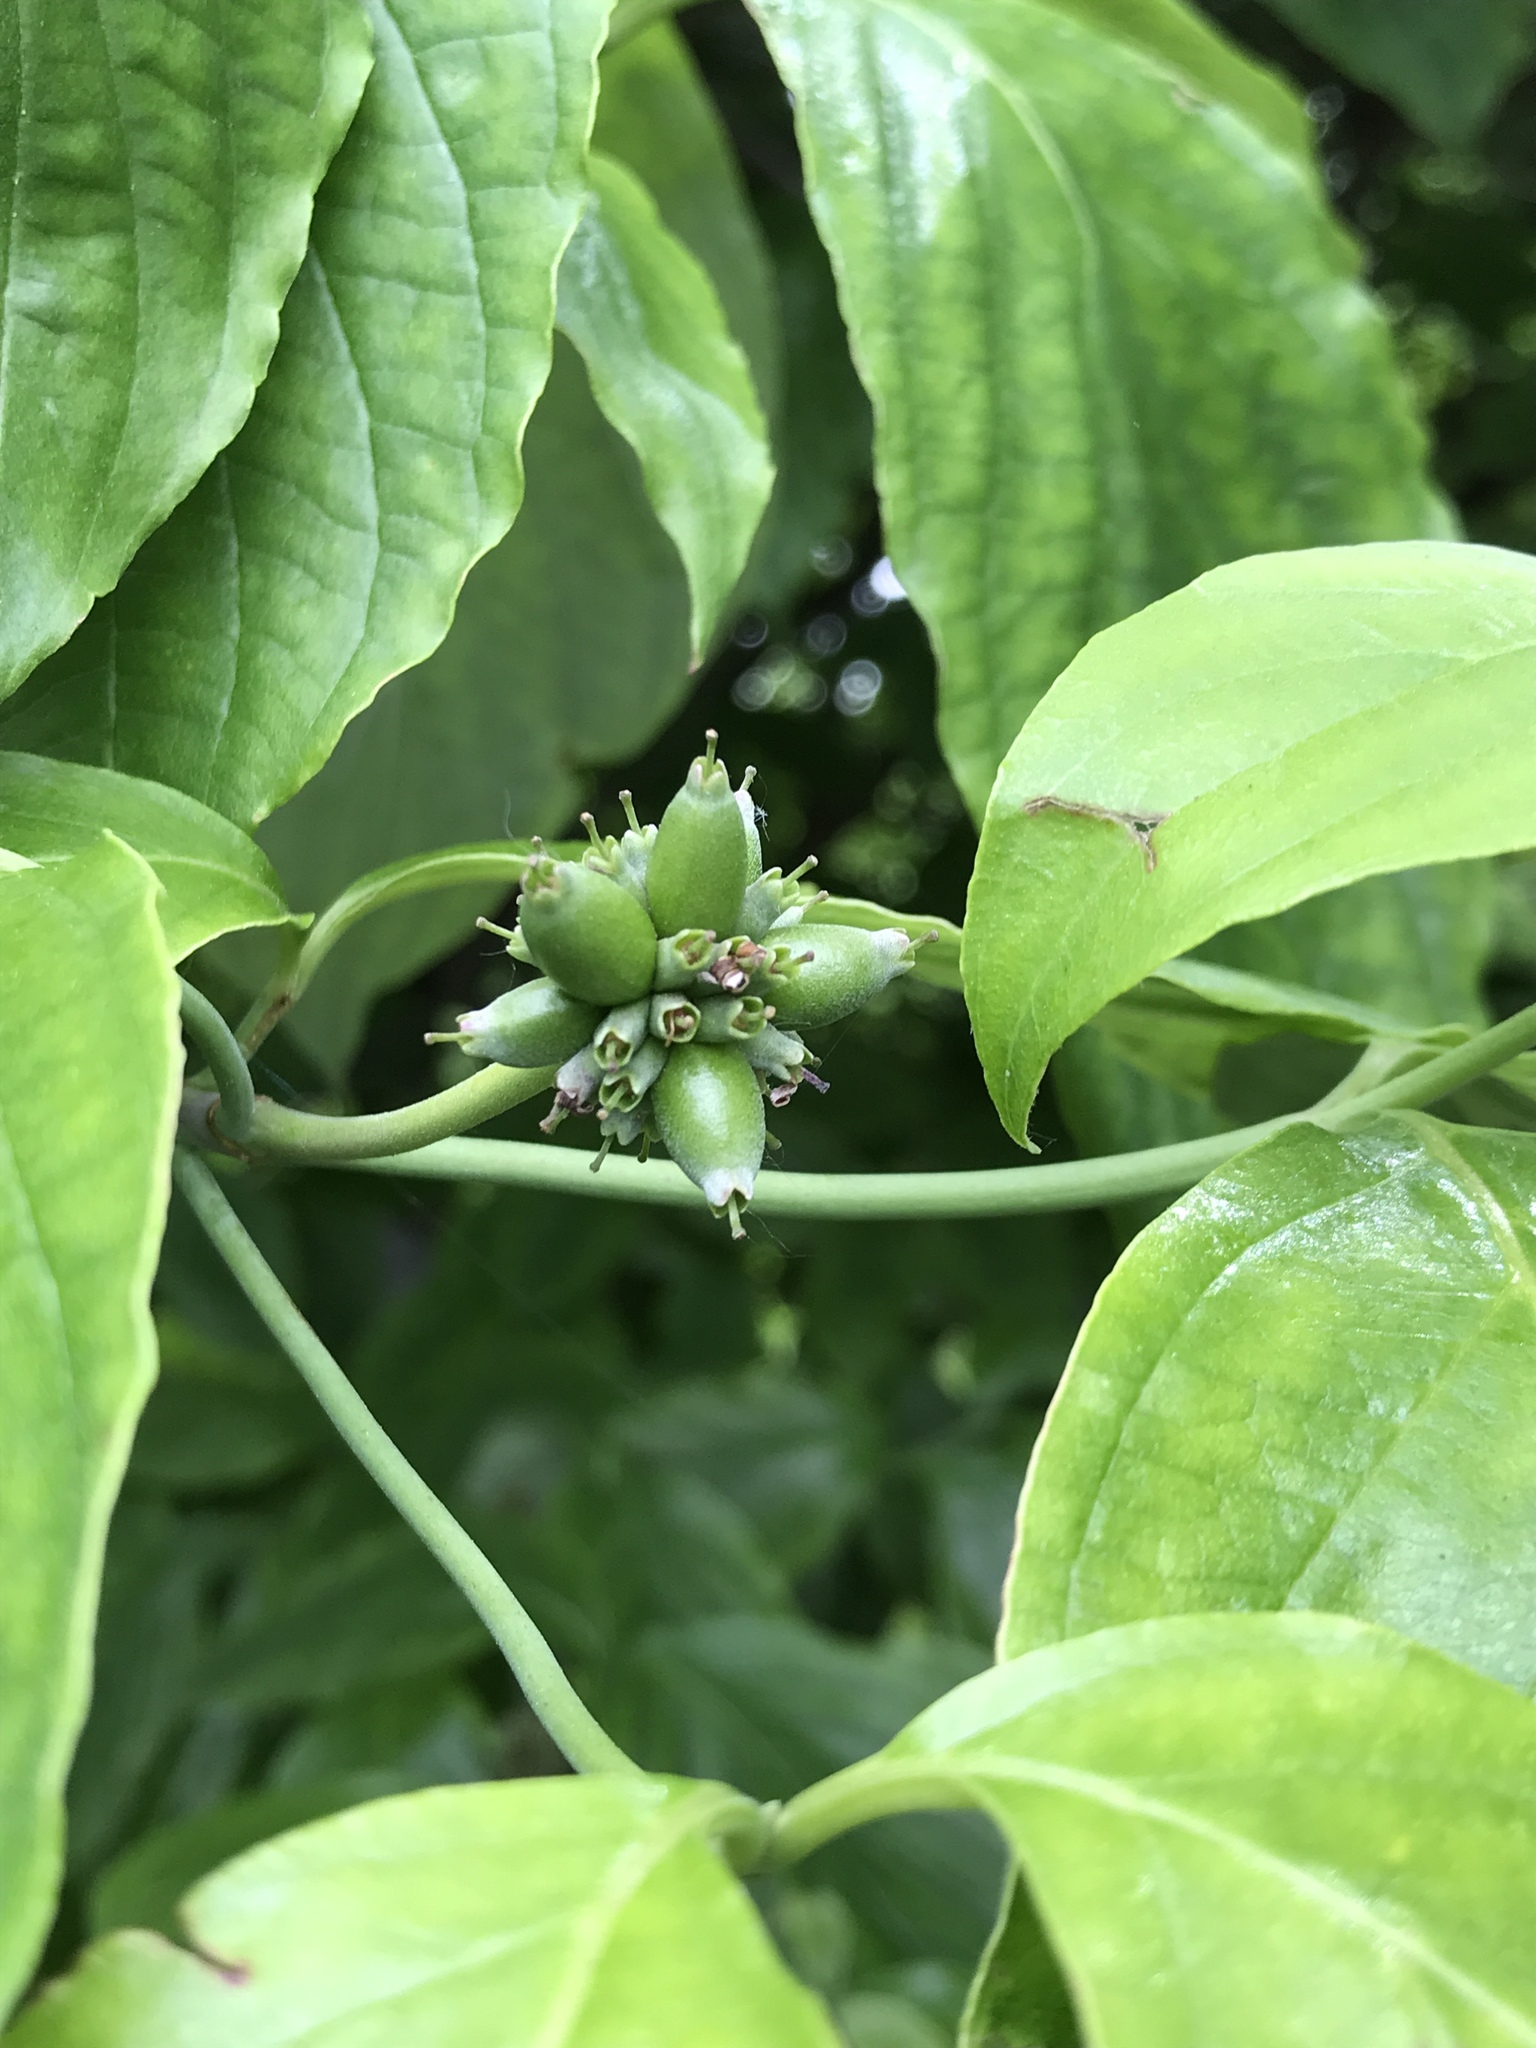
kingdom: Plantae
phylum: Tracheophyta
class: Magnoliopsida
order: Cornales
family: Cornaceae
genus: Cornus
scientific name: Cornus florida
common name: Flowering dogwood
